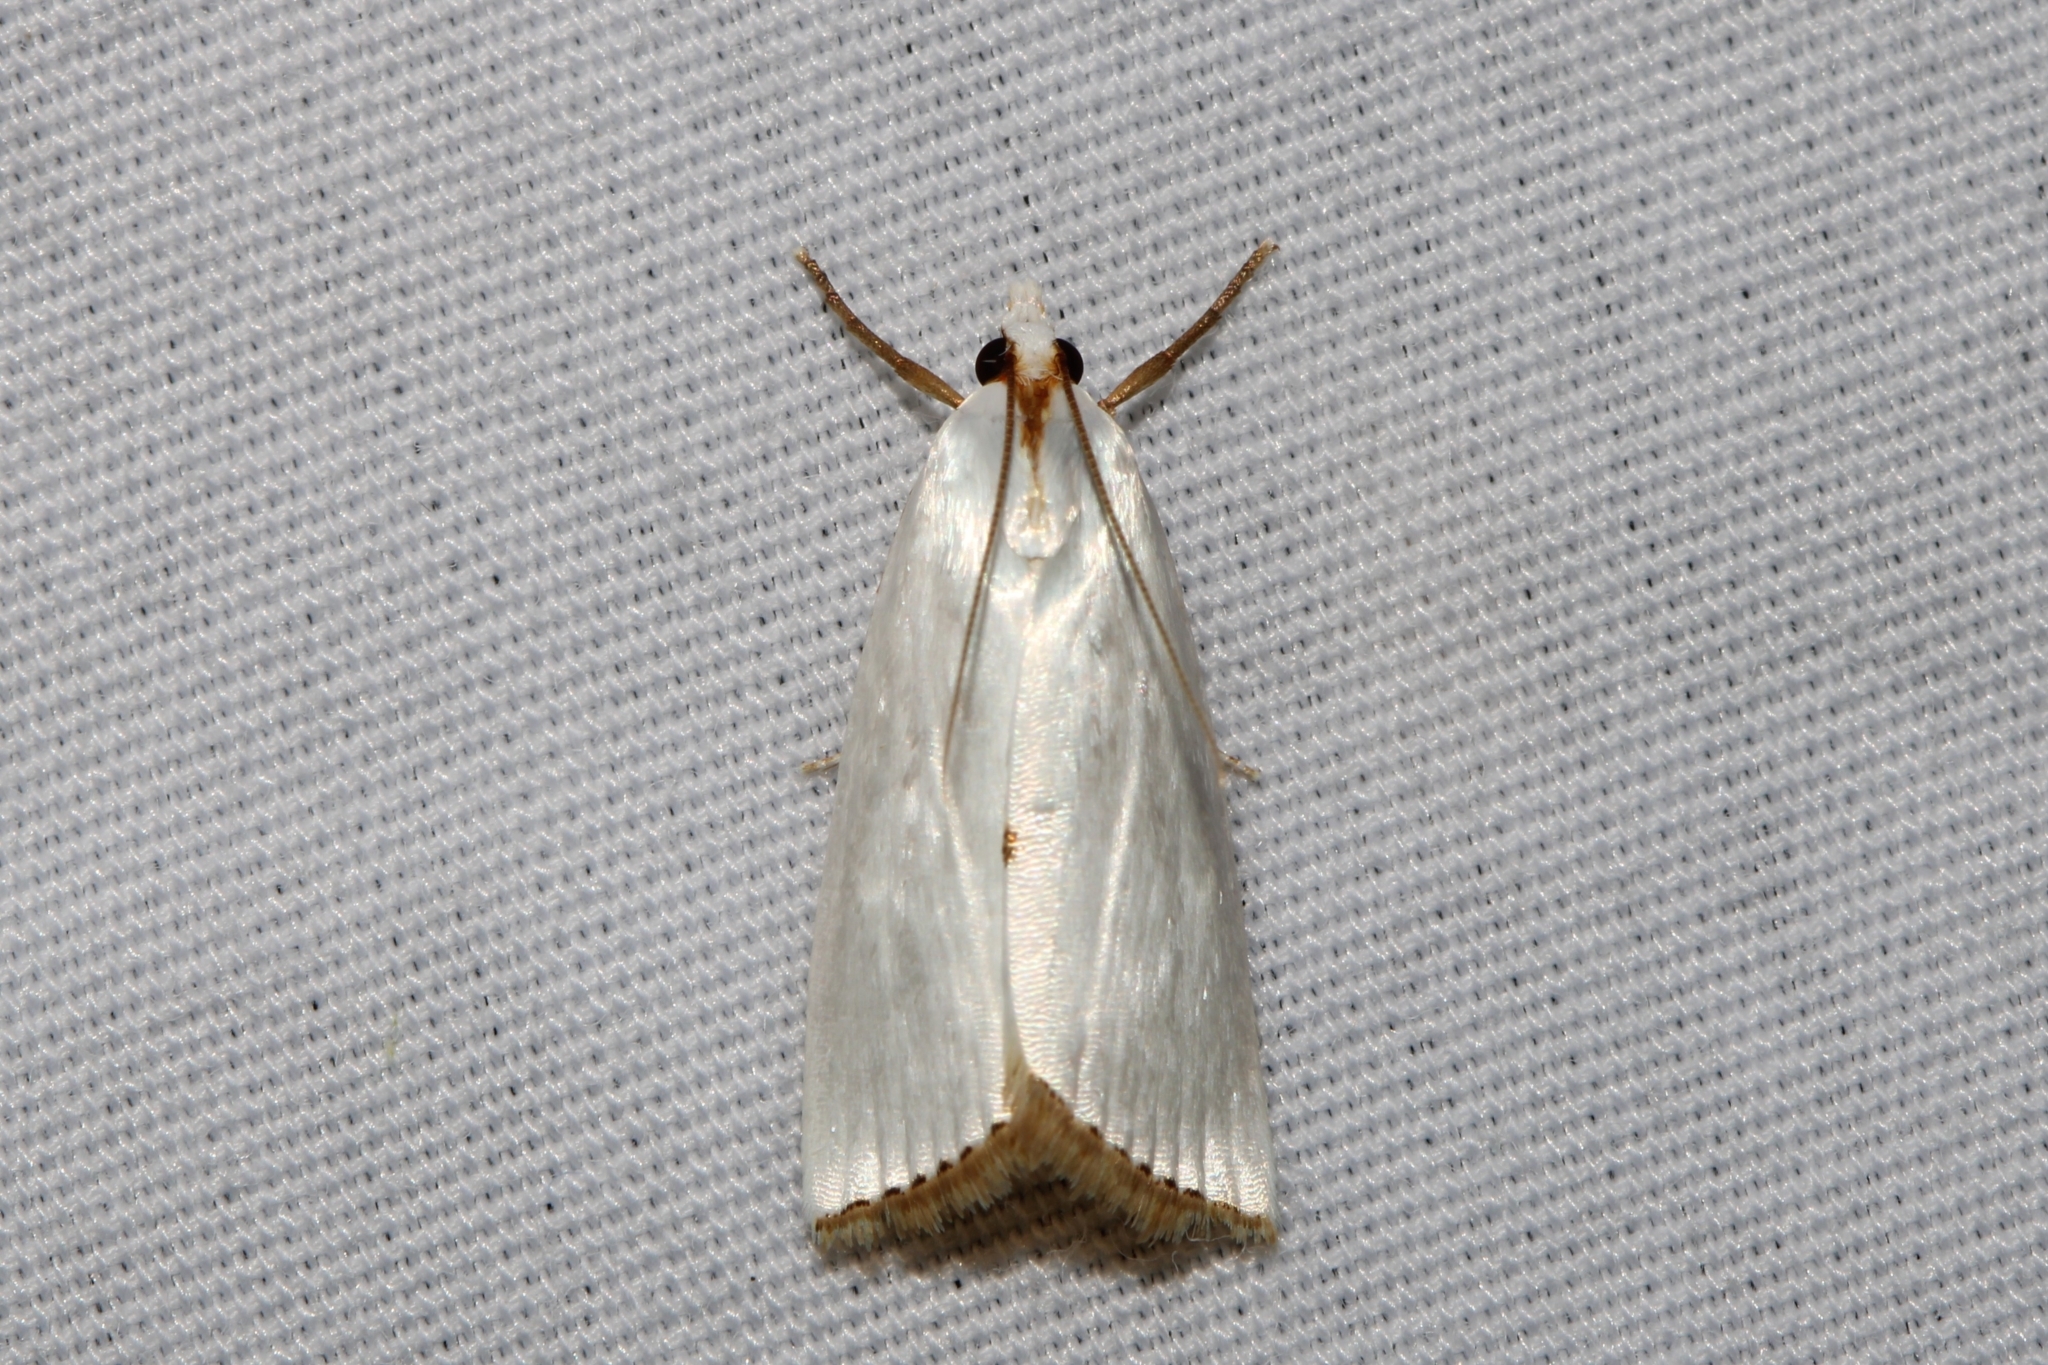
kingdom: Animalia
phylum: Arthropoda
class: Insecta
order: Lepidoptera
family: Crambidae
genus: Argyria
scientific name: Argyria nivalis
